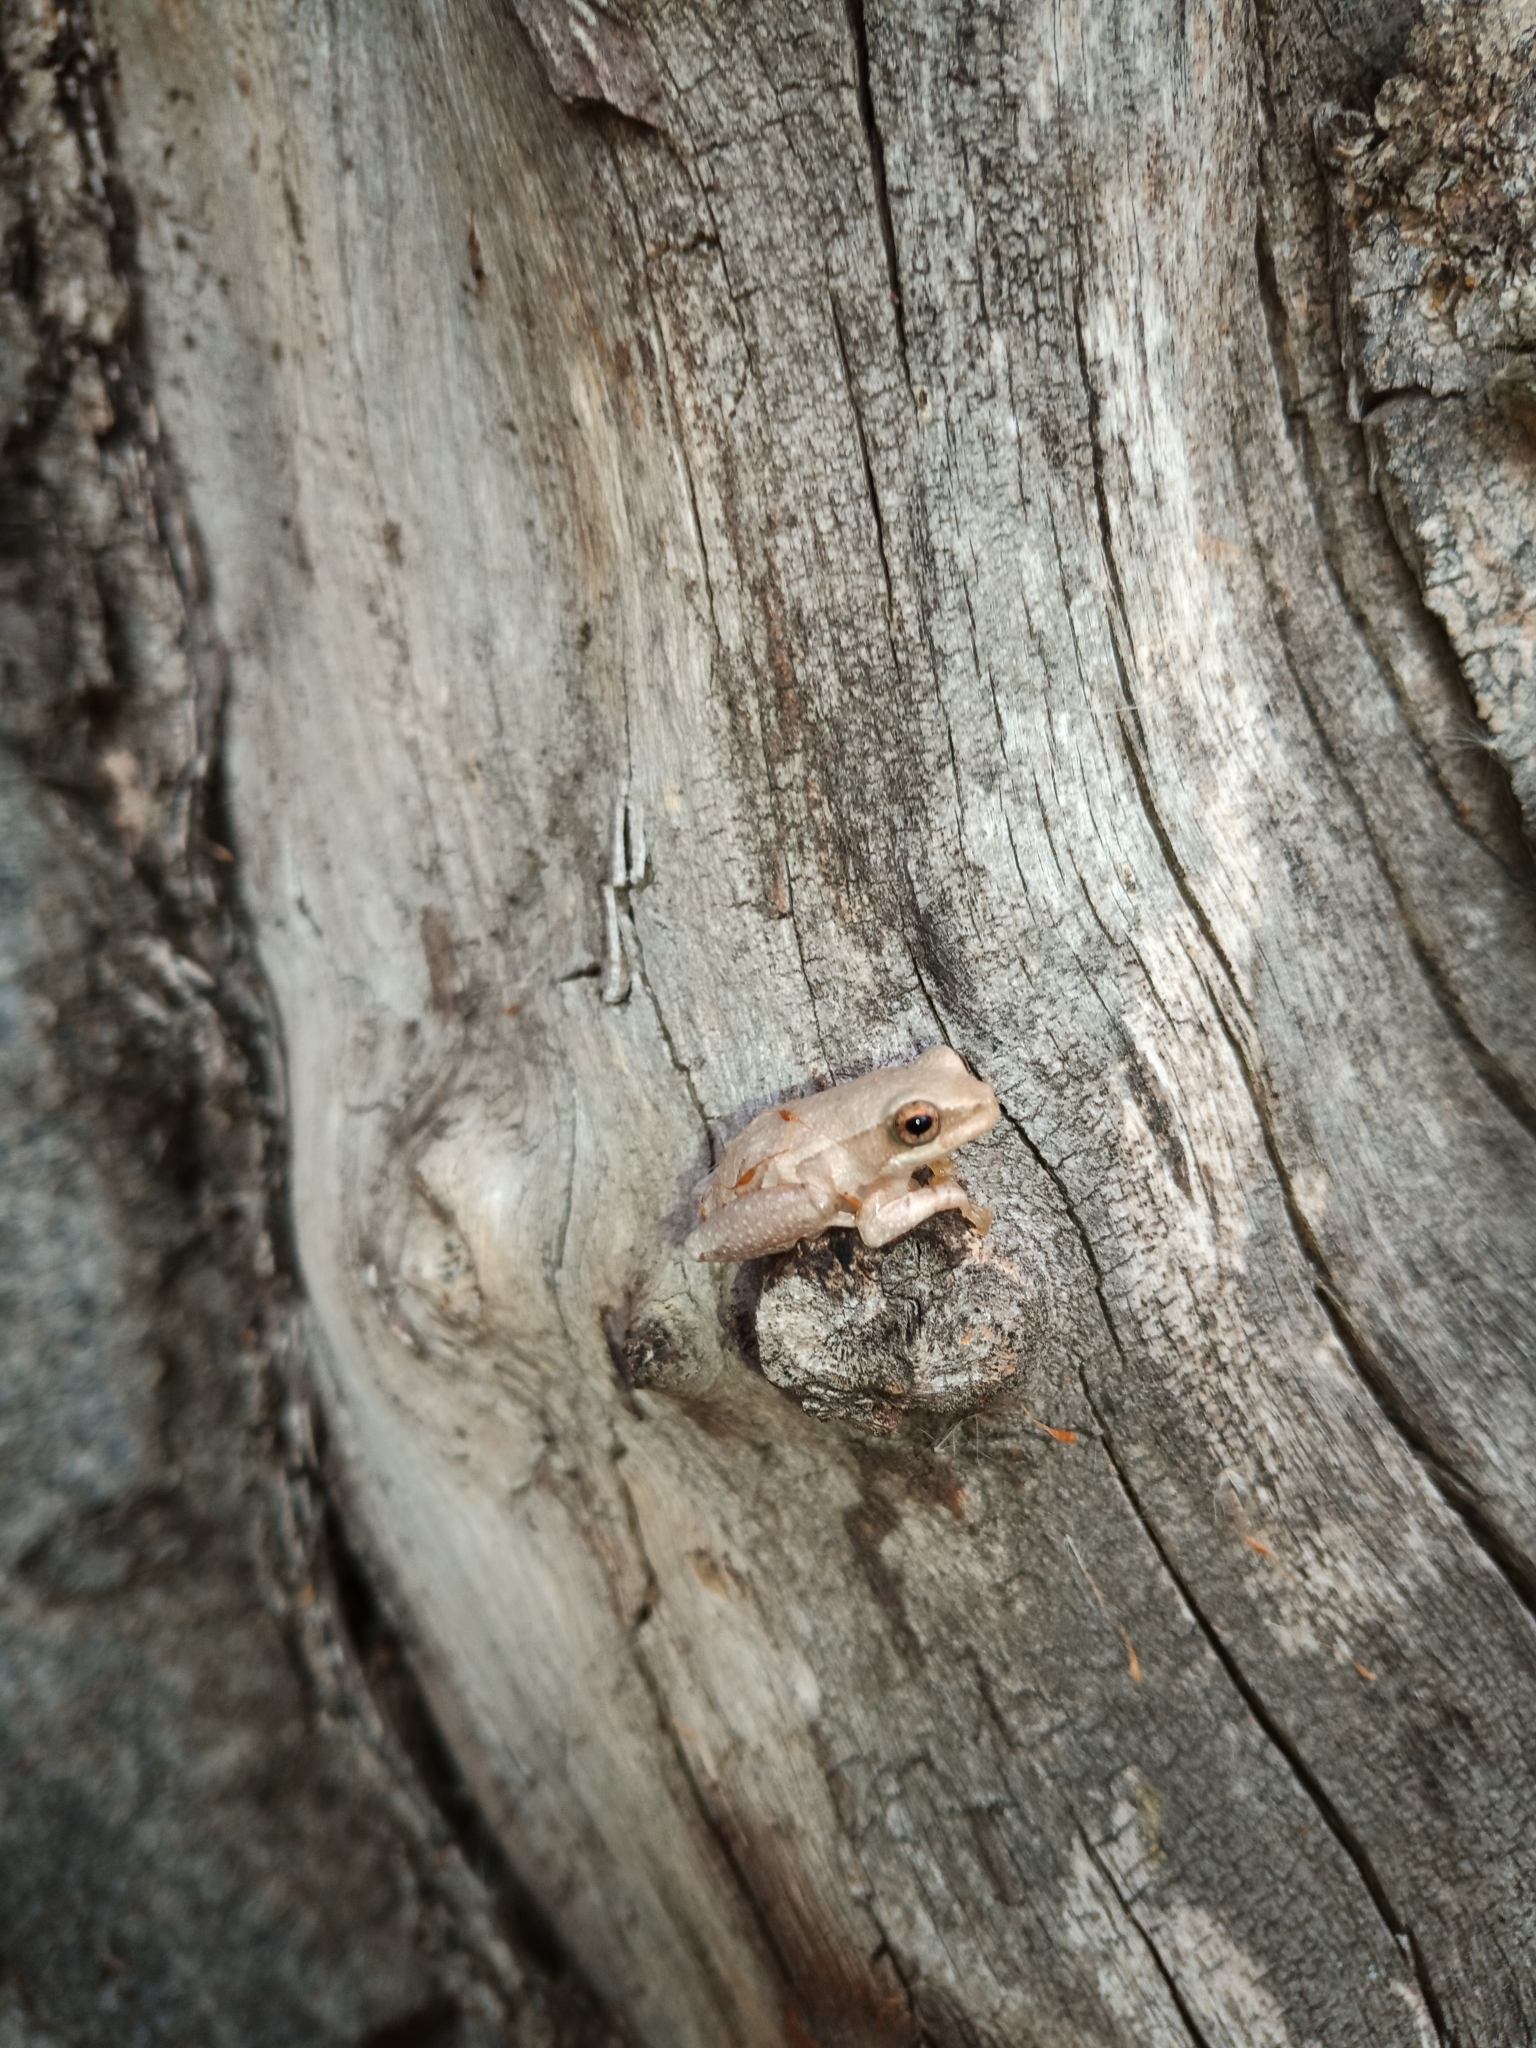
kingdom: Animalia
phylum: Chordata
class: Amphibia
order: Anura
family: Hyperoliidae
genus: Hyperolius
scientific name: Hyperolius marmoratus
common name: Painted reed frog
